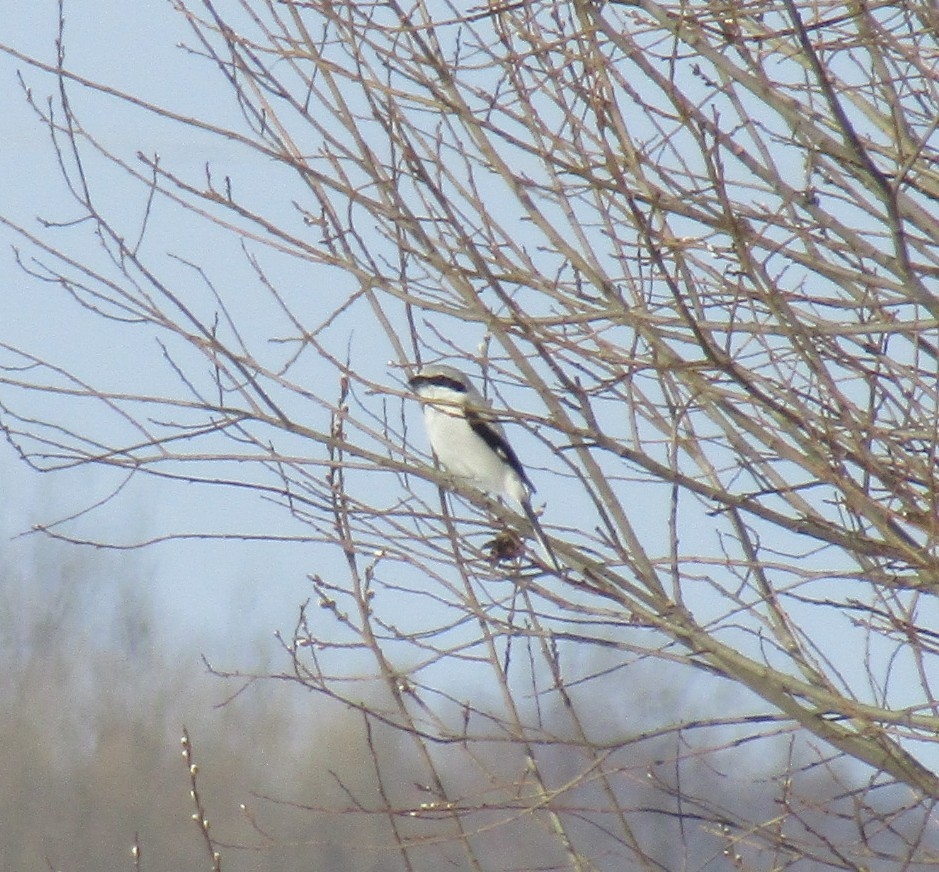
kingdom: Animalia
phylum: Chordata
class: Aves
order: Passeriformes
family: Laniidae
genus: Lanius
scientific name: Lanius excubitor
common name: Great grey shrike
